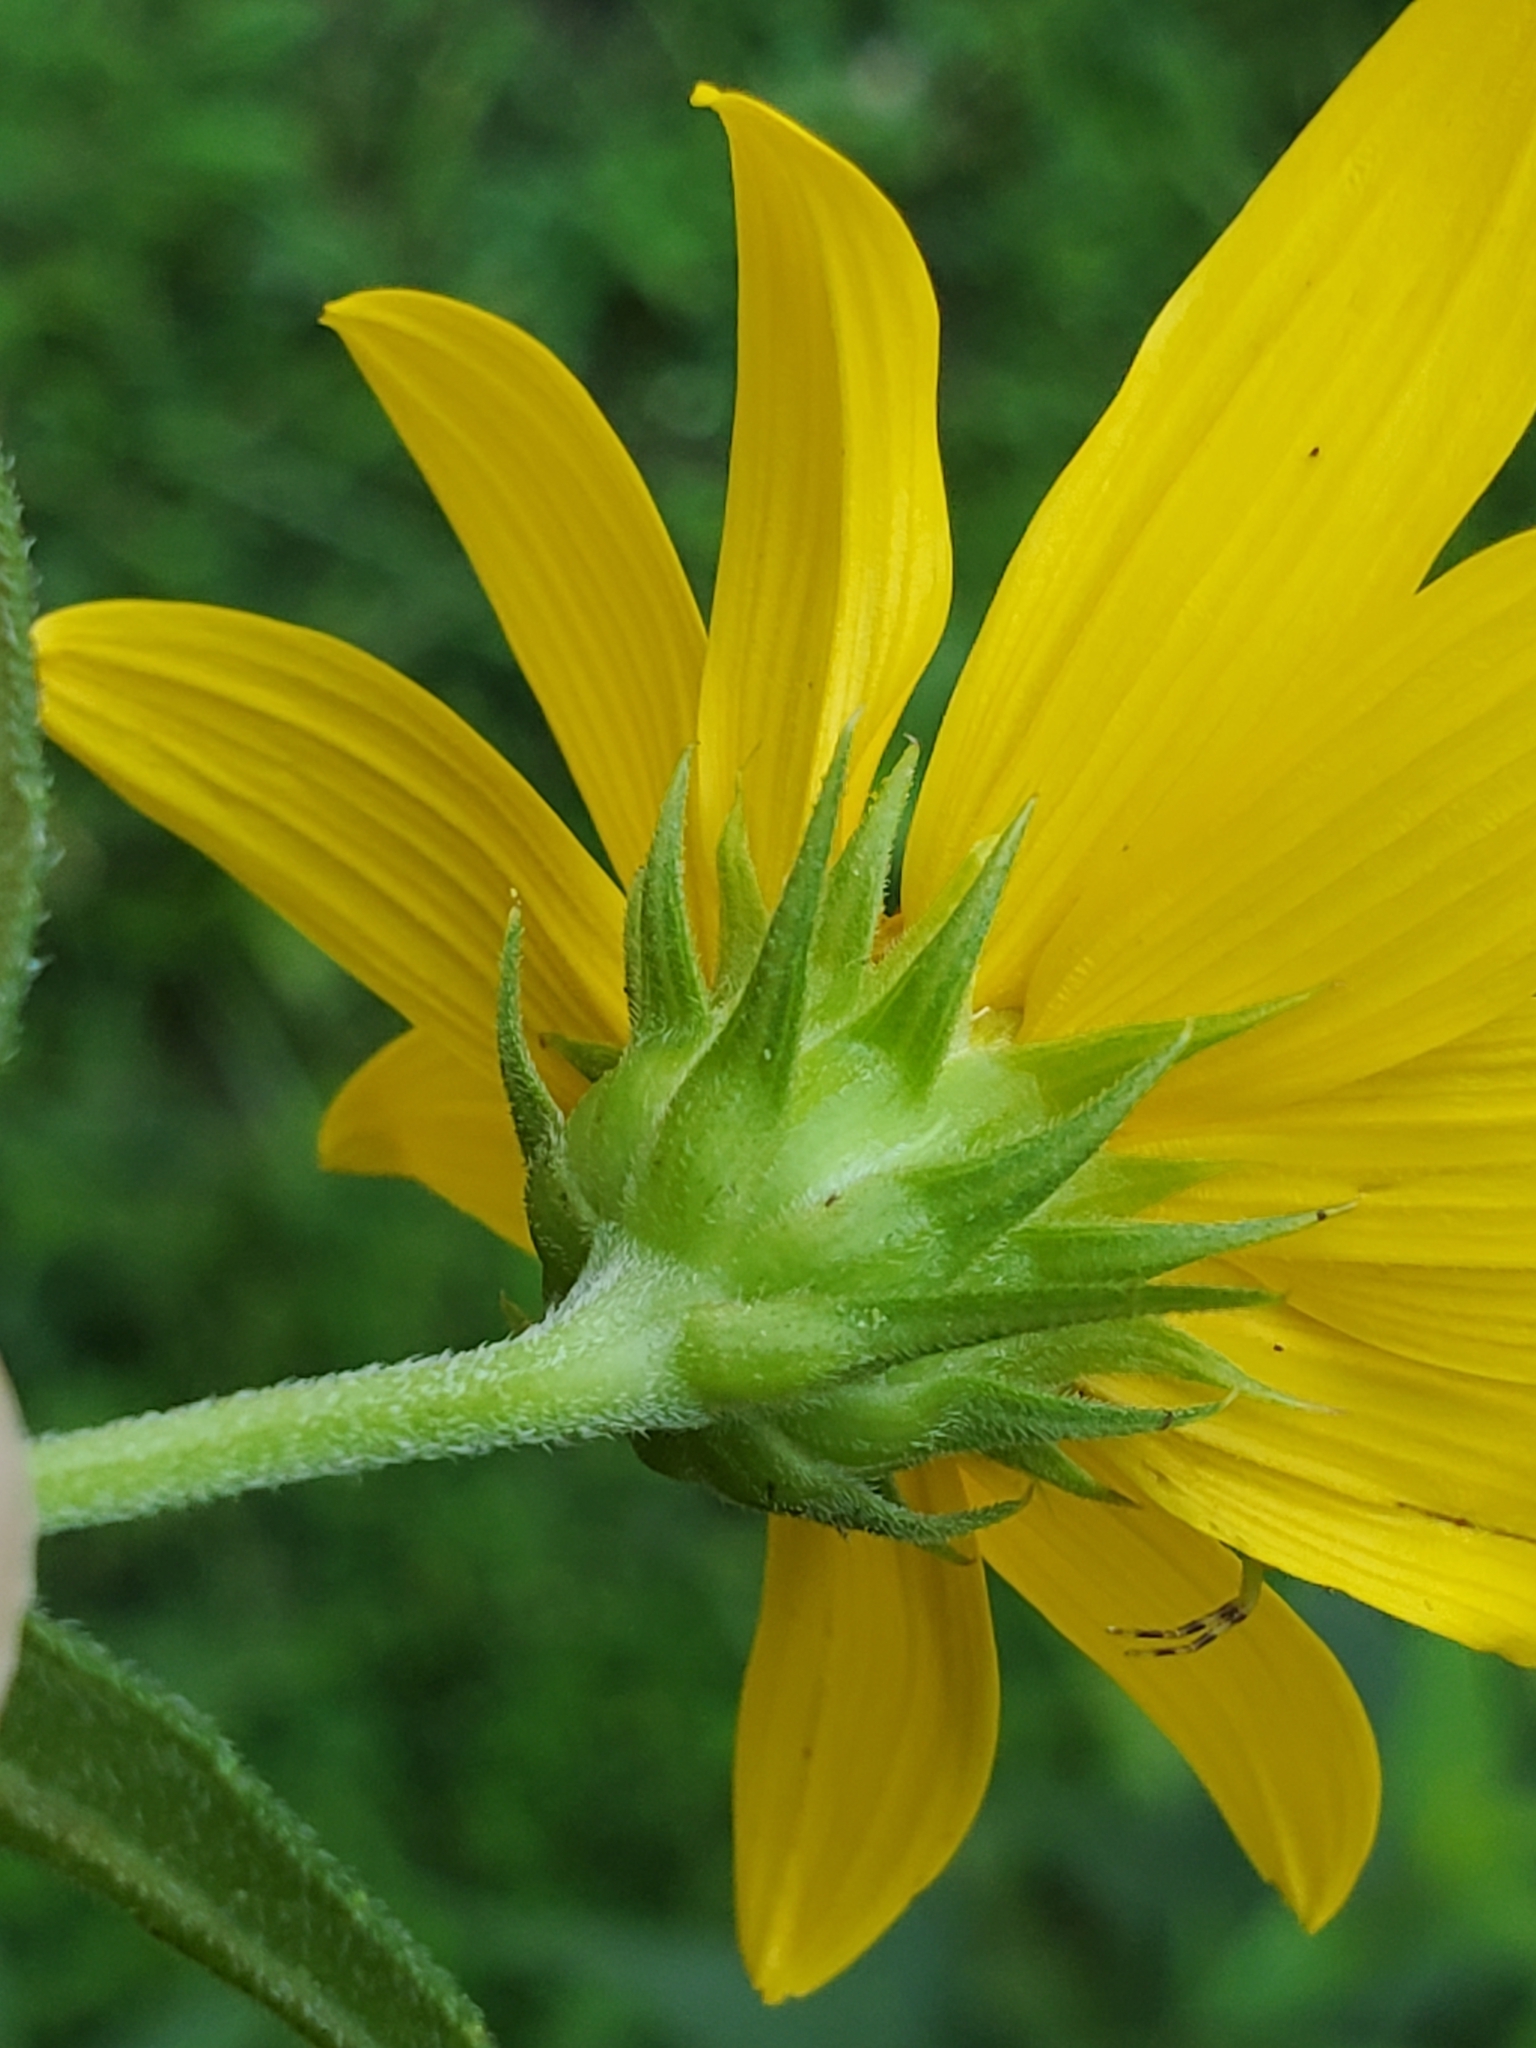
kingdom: Plantae
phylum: Tracheophyta
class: Magnoliopsida
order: Asterales
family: Asteraceae
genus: Helianthus
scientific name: Helianthus hirsutus
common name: Hairy sunflower
